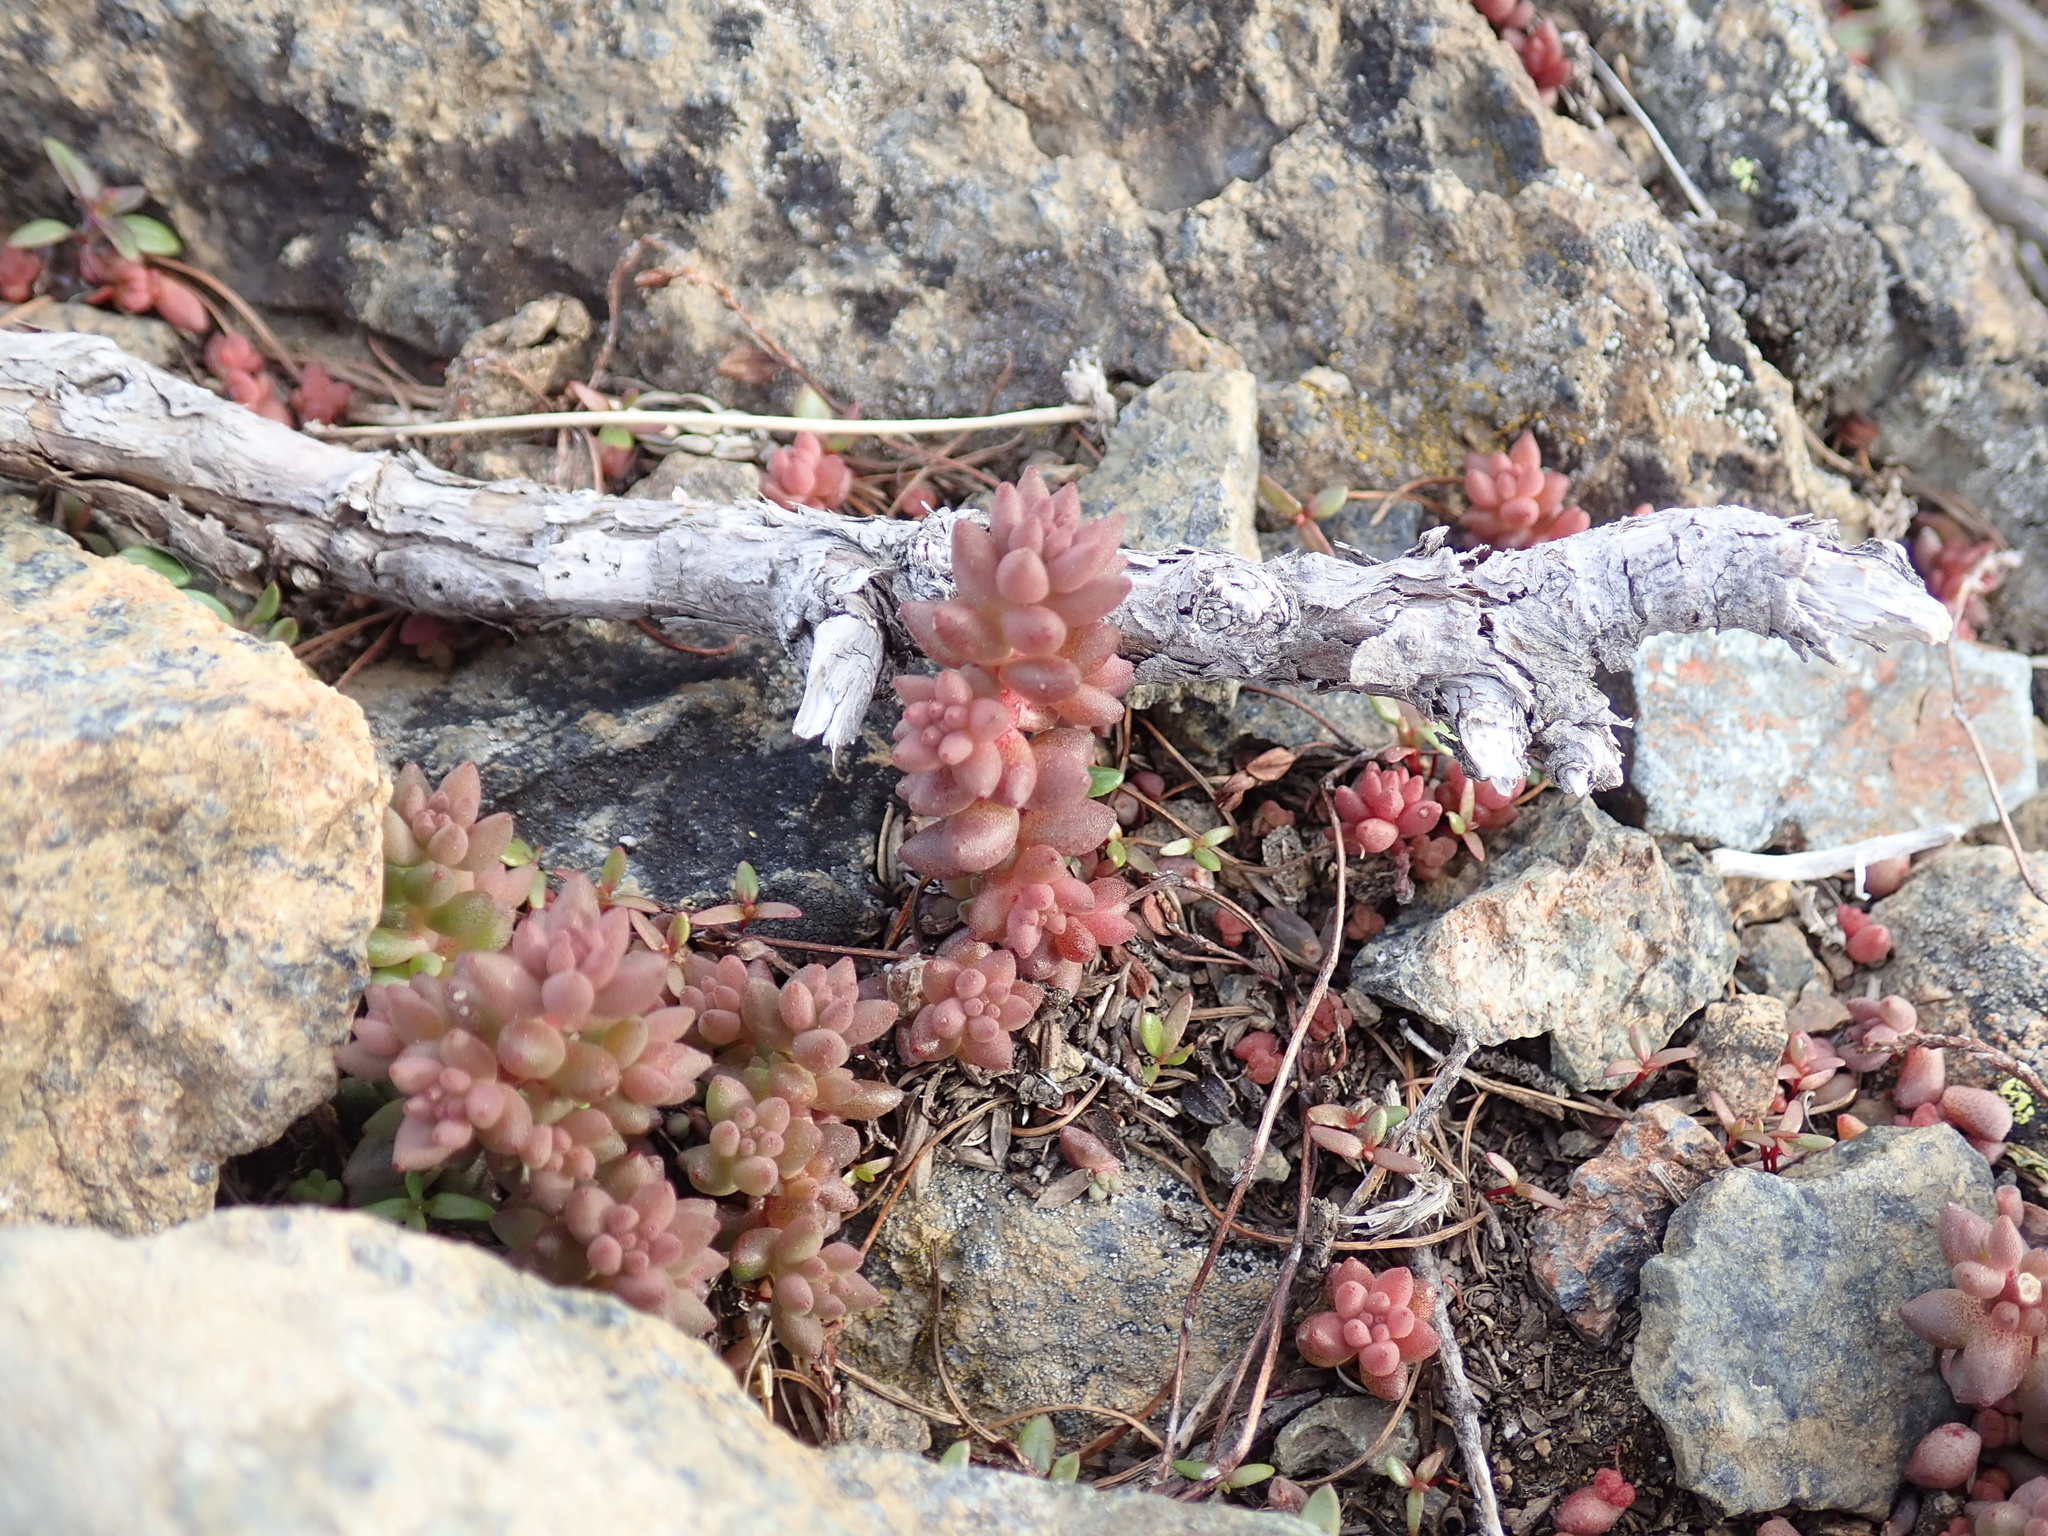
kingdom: Plantae
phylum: Tracheophyta
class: Magnoliopsida
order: Saxifragales
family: Crassulaceae
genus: Sedum
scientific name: Sedum rupicola
